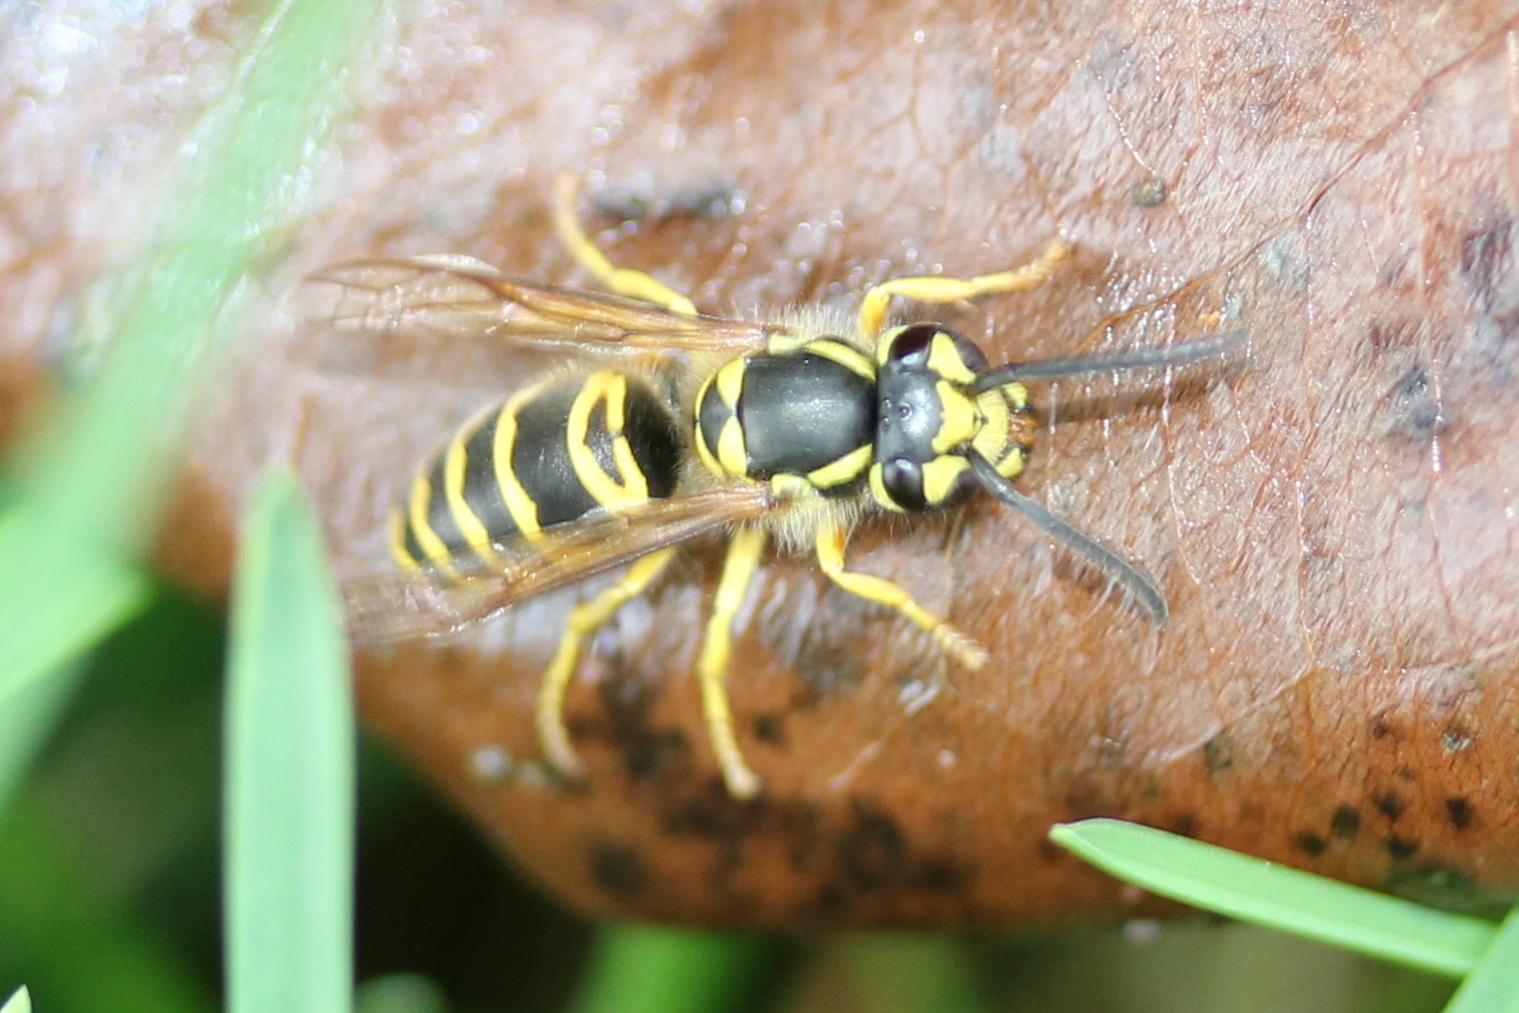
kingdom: Animalia
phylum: Arthropoda
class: Insecta
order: Hymenoptera
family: Vespidae
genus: Vespula
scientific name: Vespula maculifrons
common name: Eastern yellowjacket
